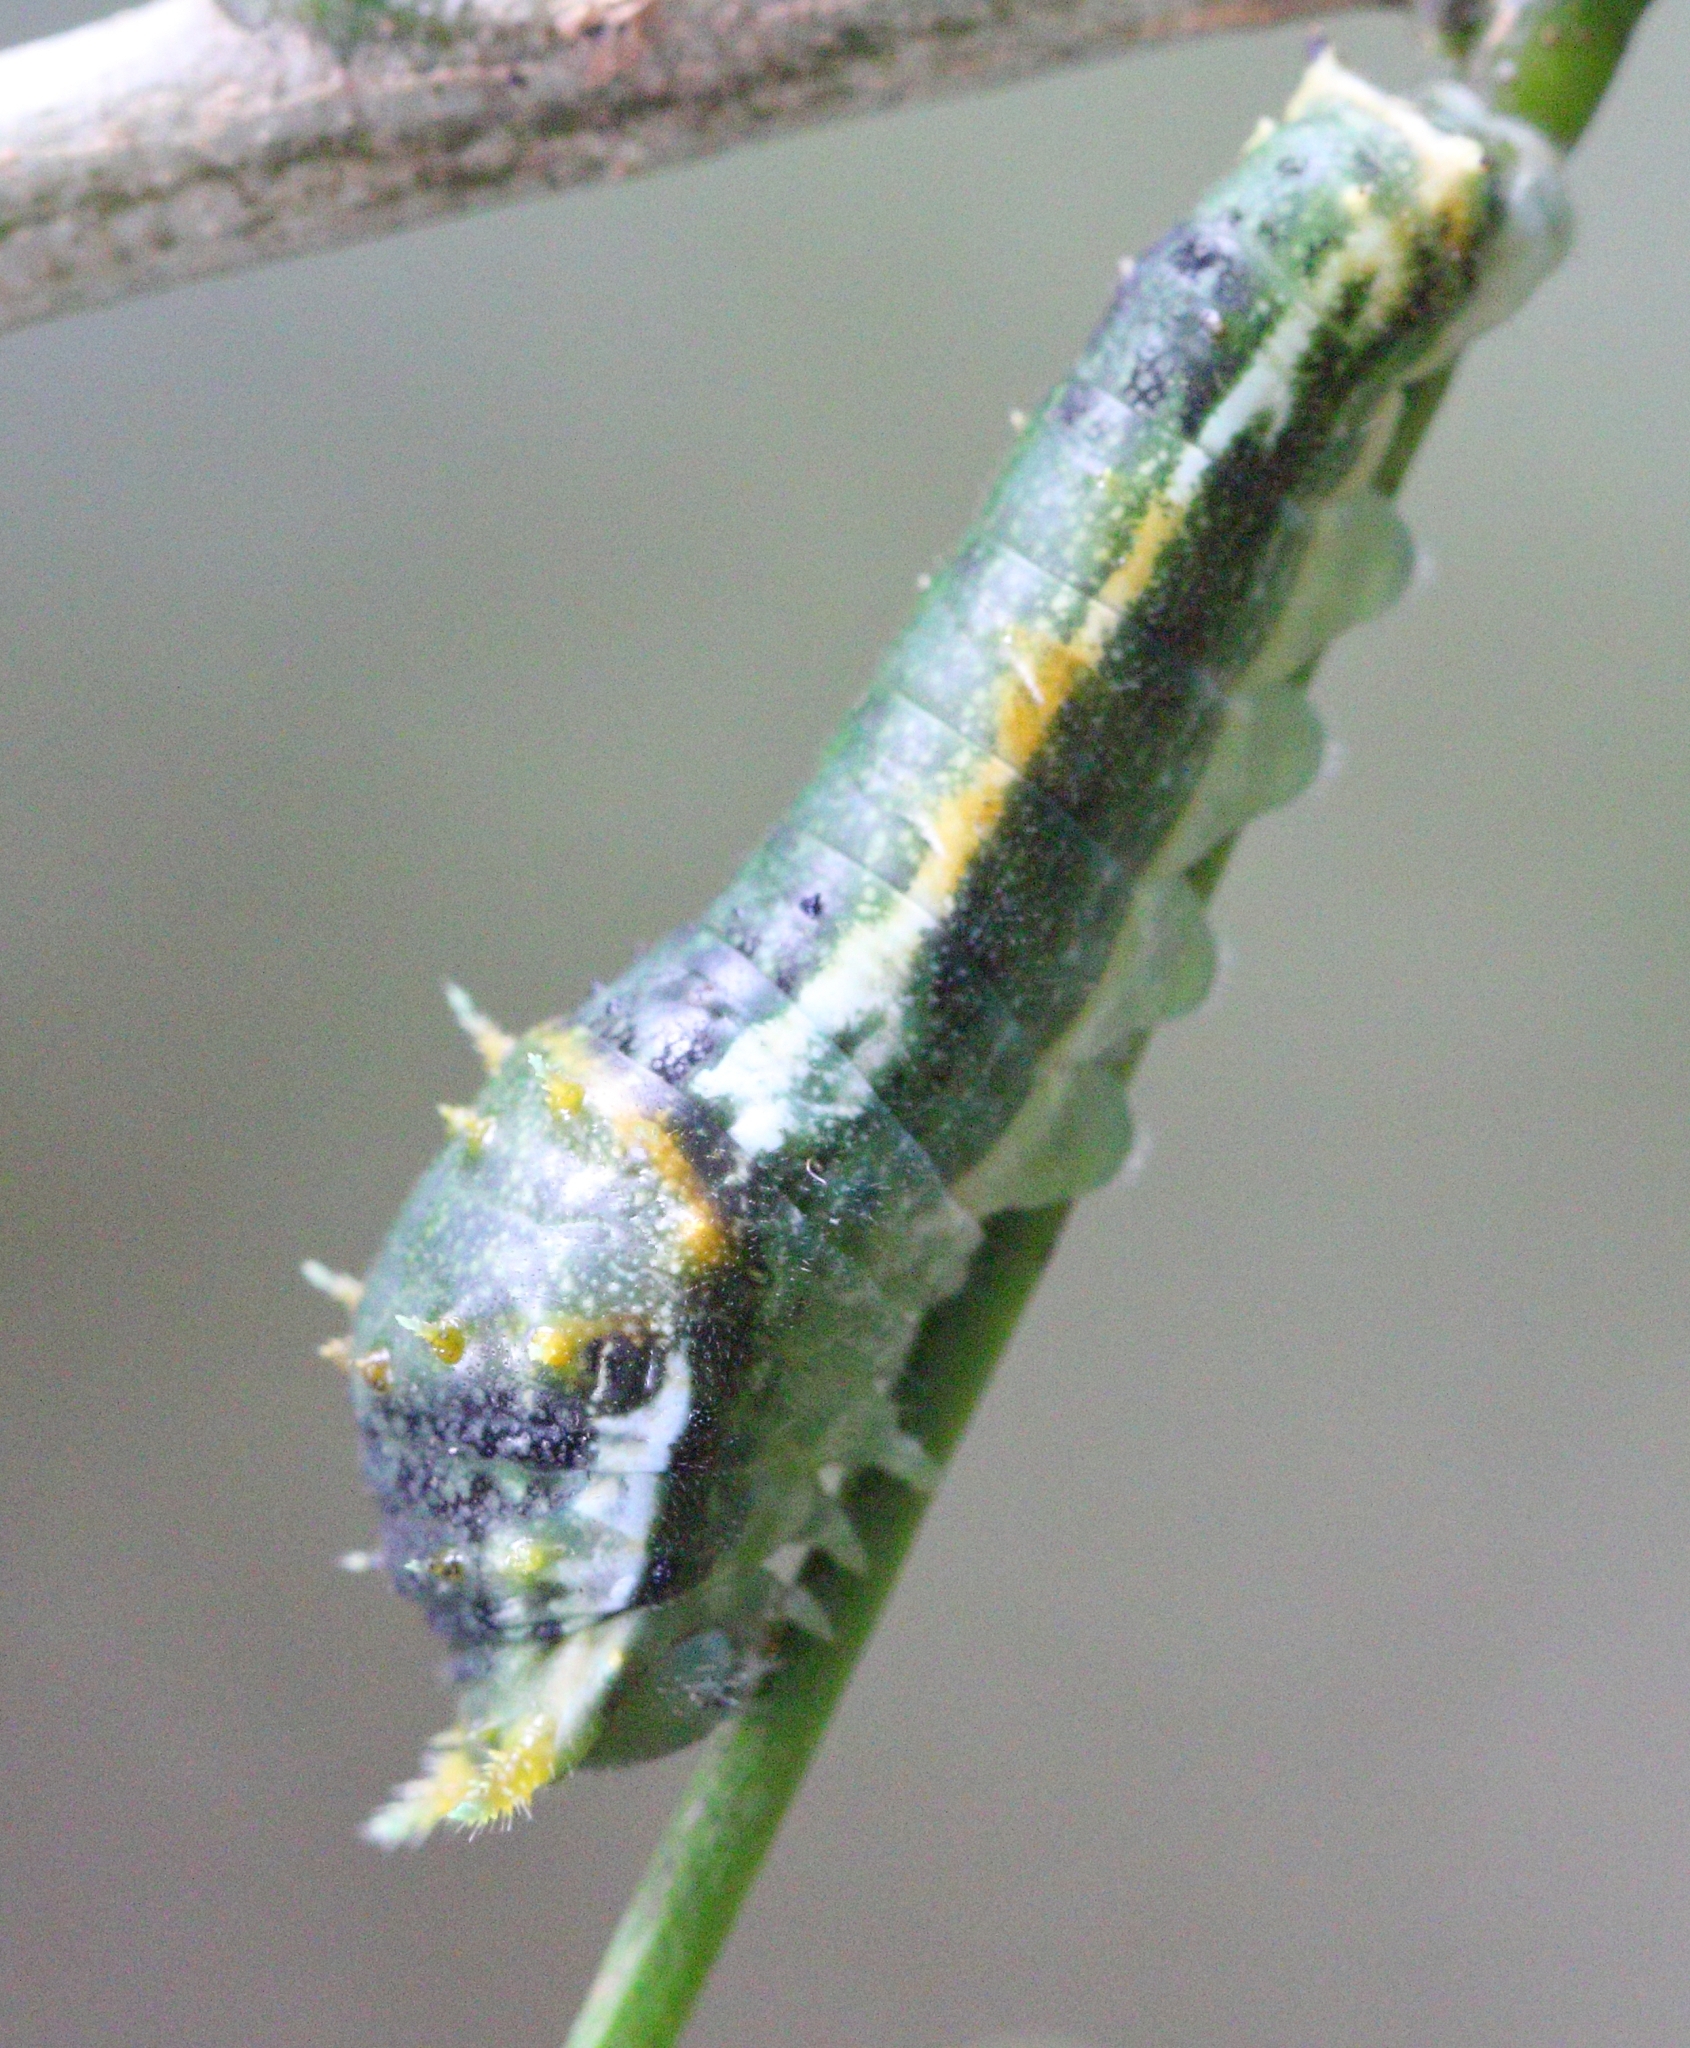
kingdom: Animalia
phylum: Arthropoda
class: Insecta
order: Lepidoptera
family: Papilionidae
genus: Papilio
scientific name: Papilio nireus
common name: Greenbanded swallowtail
